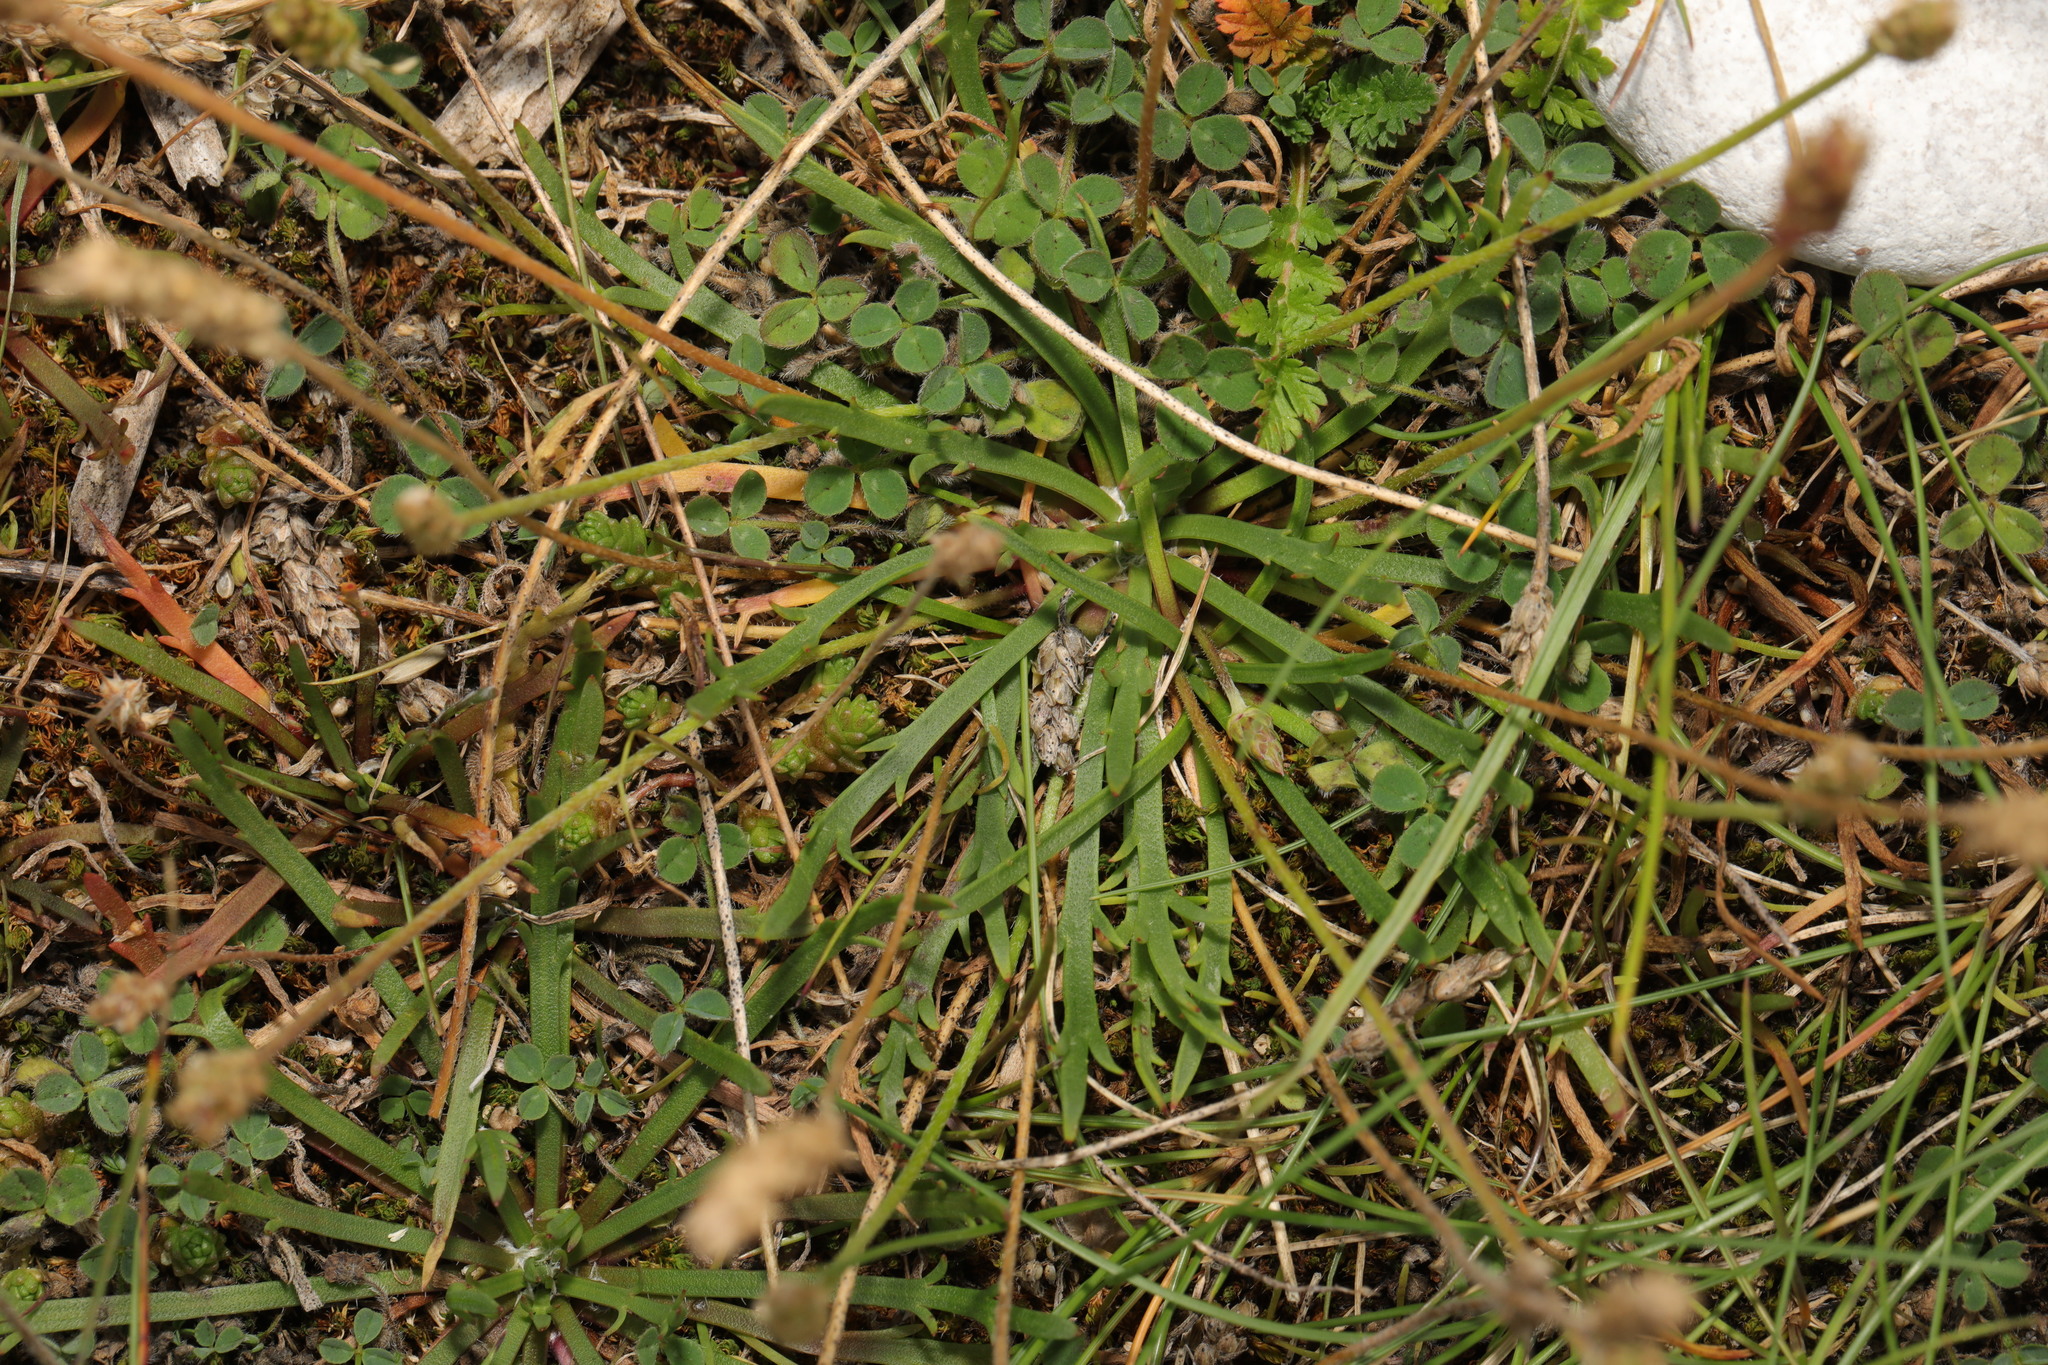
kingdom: Plantae
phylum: Tracheophyta
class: Magnoliopsida
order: Lamiales
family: Plantaginaceae
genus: Plantago
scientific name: Plantago coronopus
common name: Buck's-horn plantain
